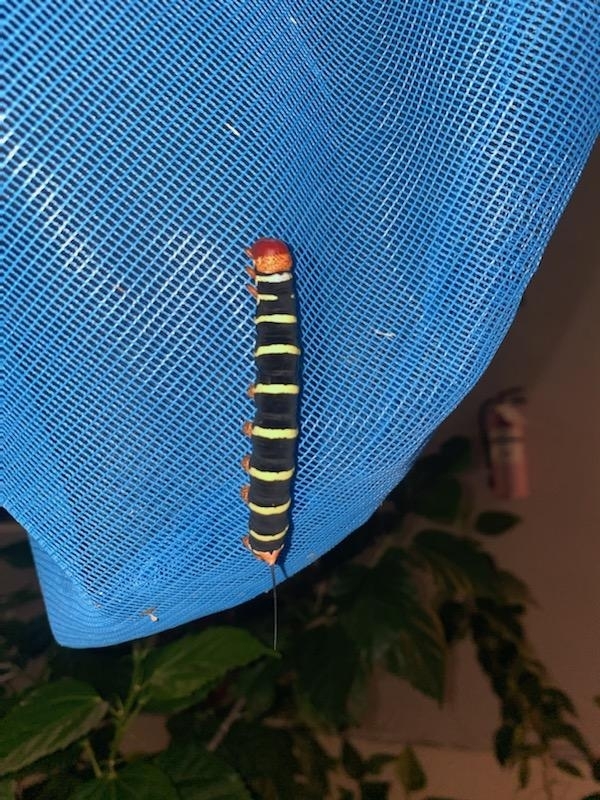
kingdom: Animalia
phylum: Arthropoda
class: Insecta
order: Lepidoptera
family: Sphingidae
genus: Pseudosphinx
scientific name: Pseudosphinx tetrio
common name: Tetrio sphinx
